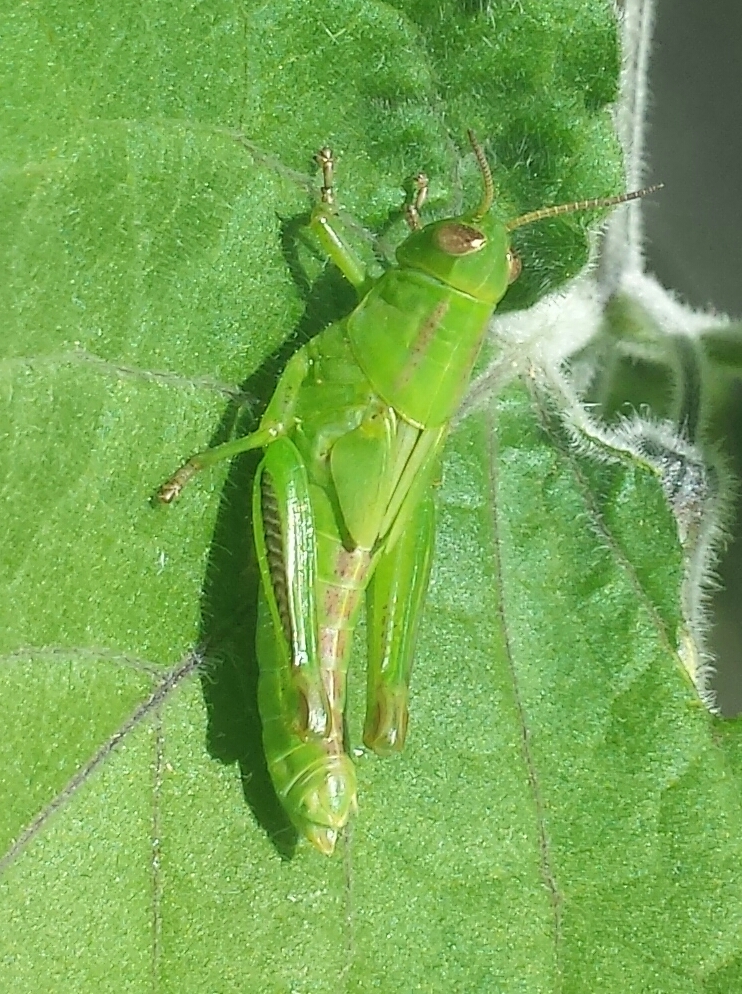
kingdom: Animalia
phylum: Arthropoda
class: Insecta
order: Orthoptera
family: Acrididae
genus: Melanoplus
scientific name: Melanoplus bivittatus
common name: Two-striped grasshopper
